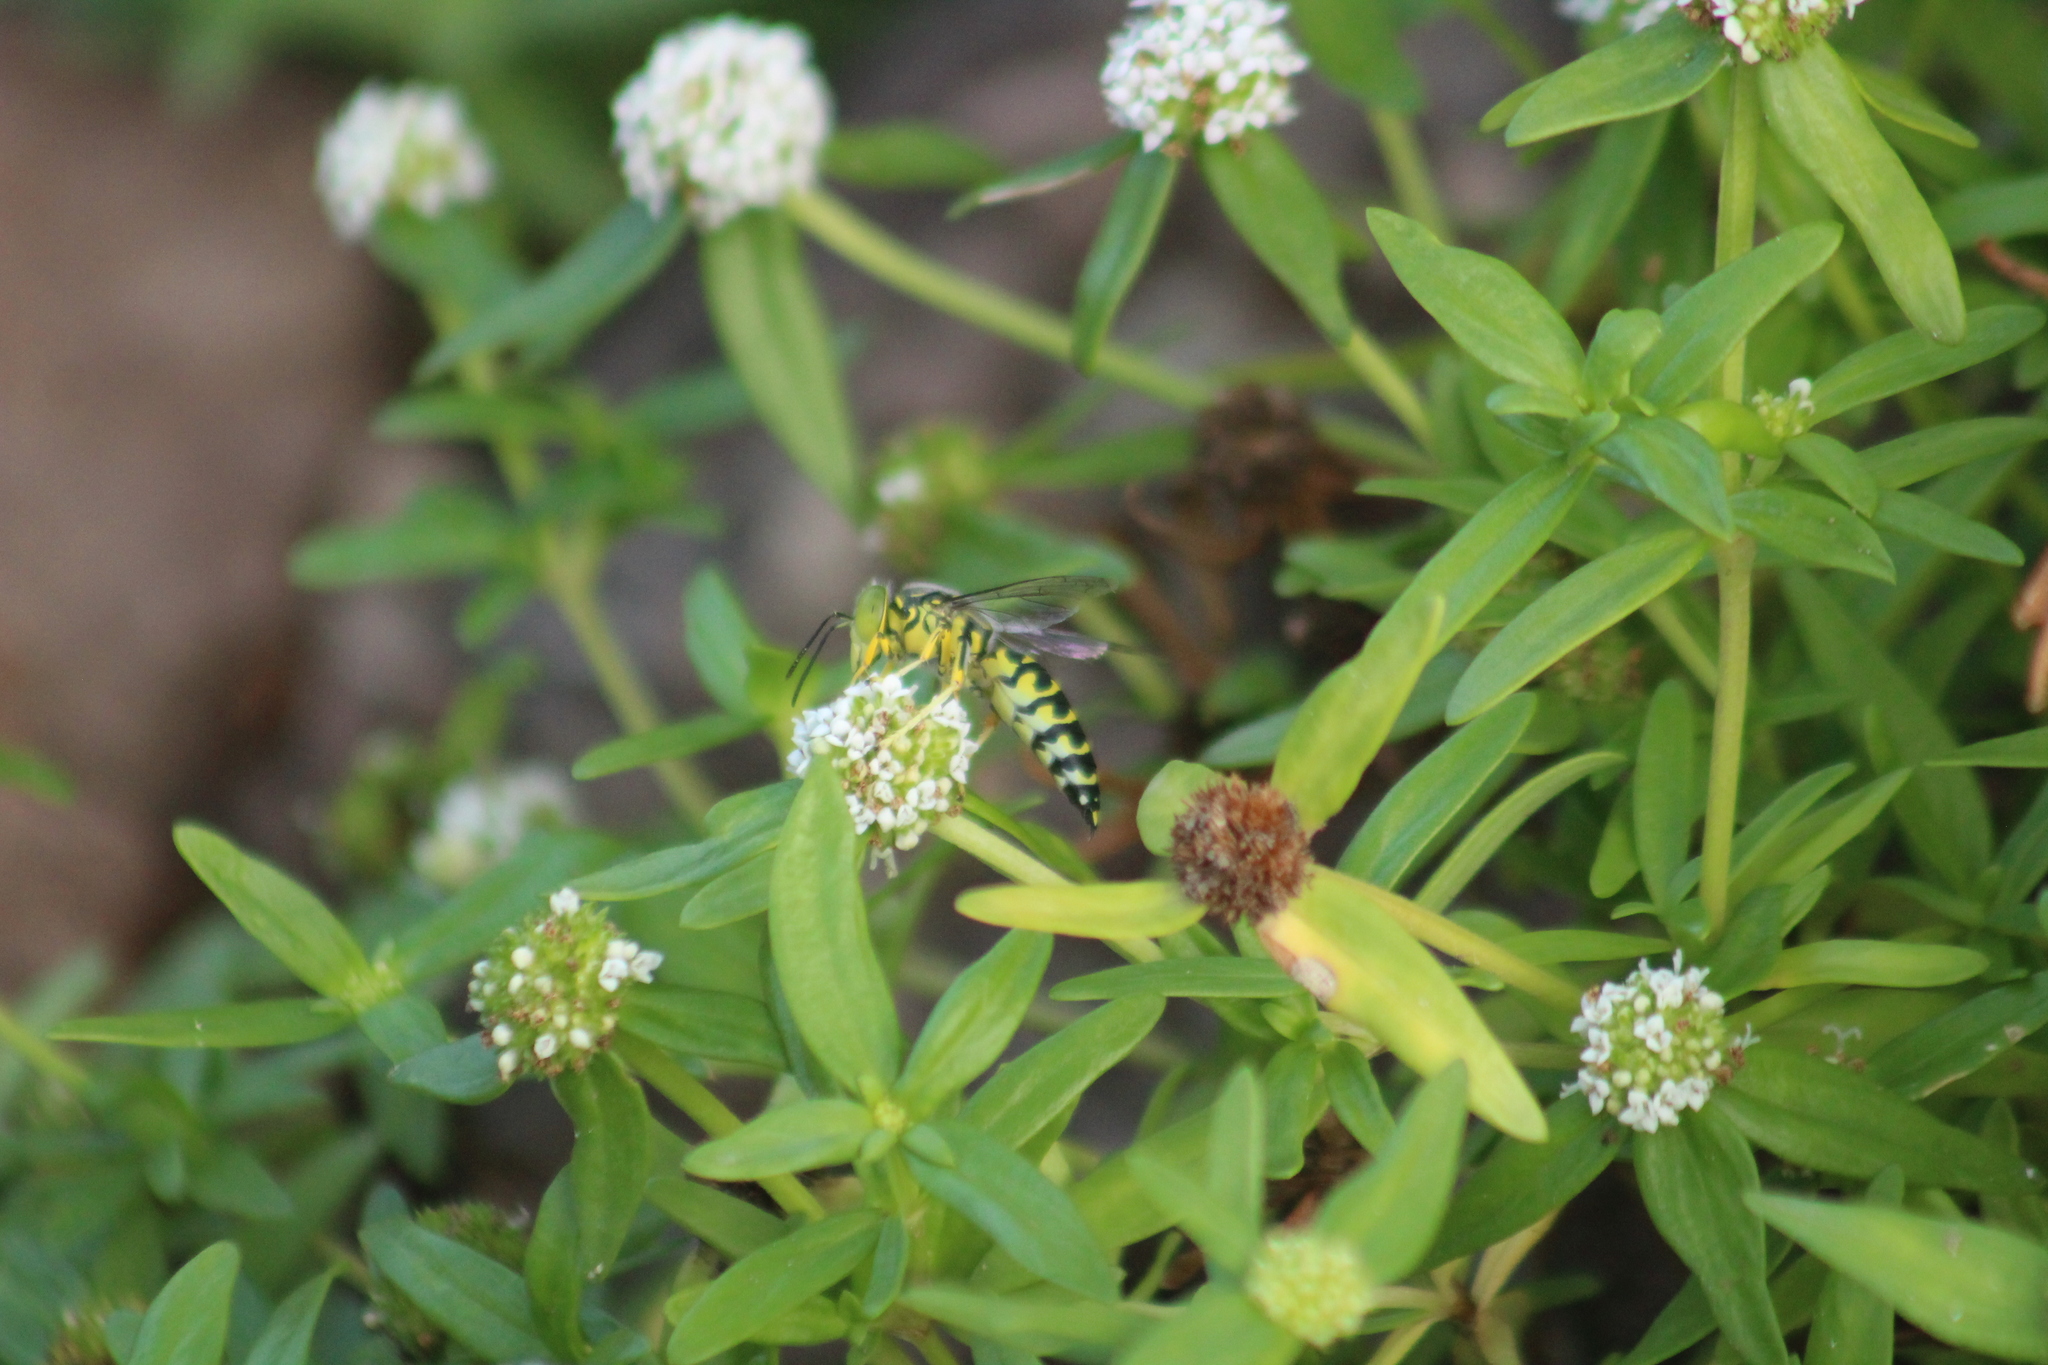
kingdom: Animalia
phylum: Arthropoda
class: Insecta
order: Hymenoptera
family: Crabronidae
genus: Stictia
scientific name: Stictia signata
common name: Sand wasp
